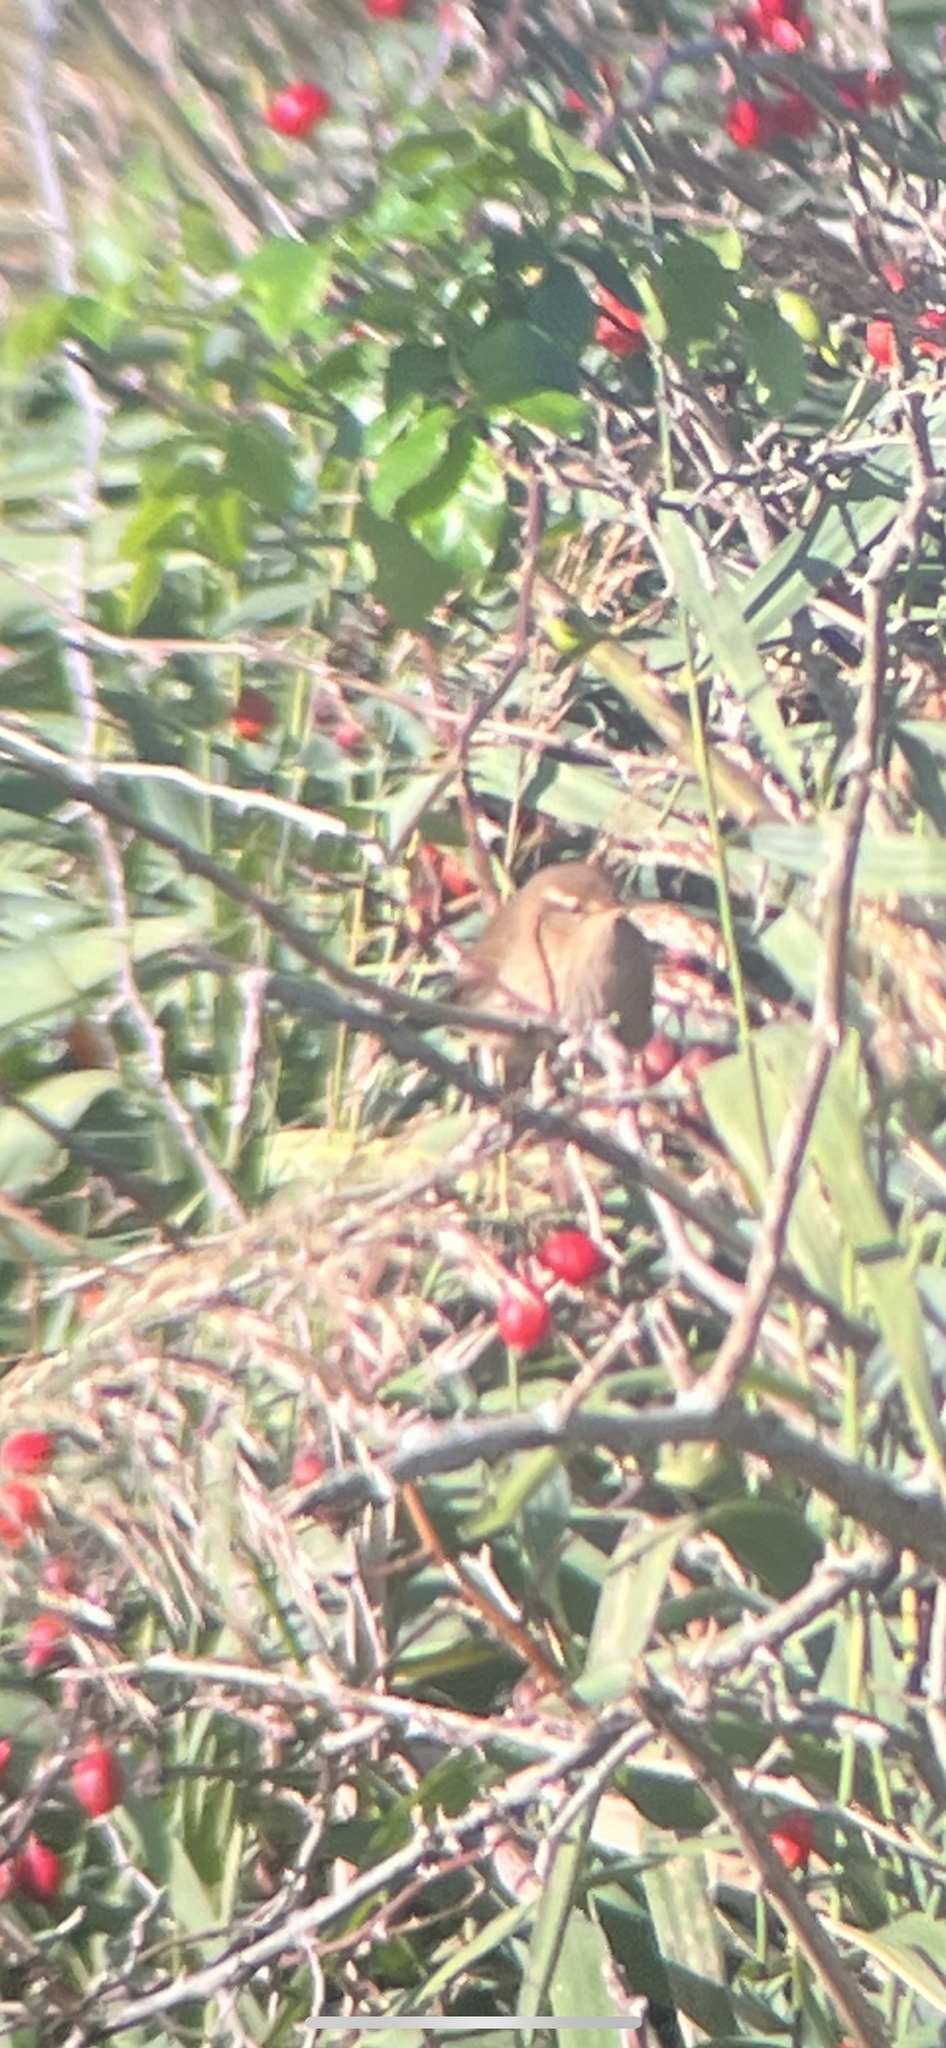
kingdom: Animalia
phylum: Chordata
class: Aves
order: Passeriformes
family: Troglodytidae
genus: Troglodytes
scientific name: Troglodytes troglodytes
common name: Eurasian wren
